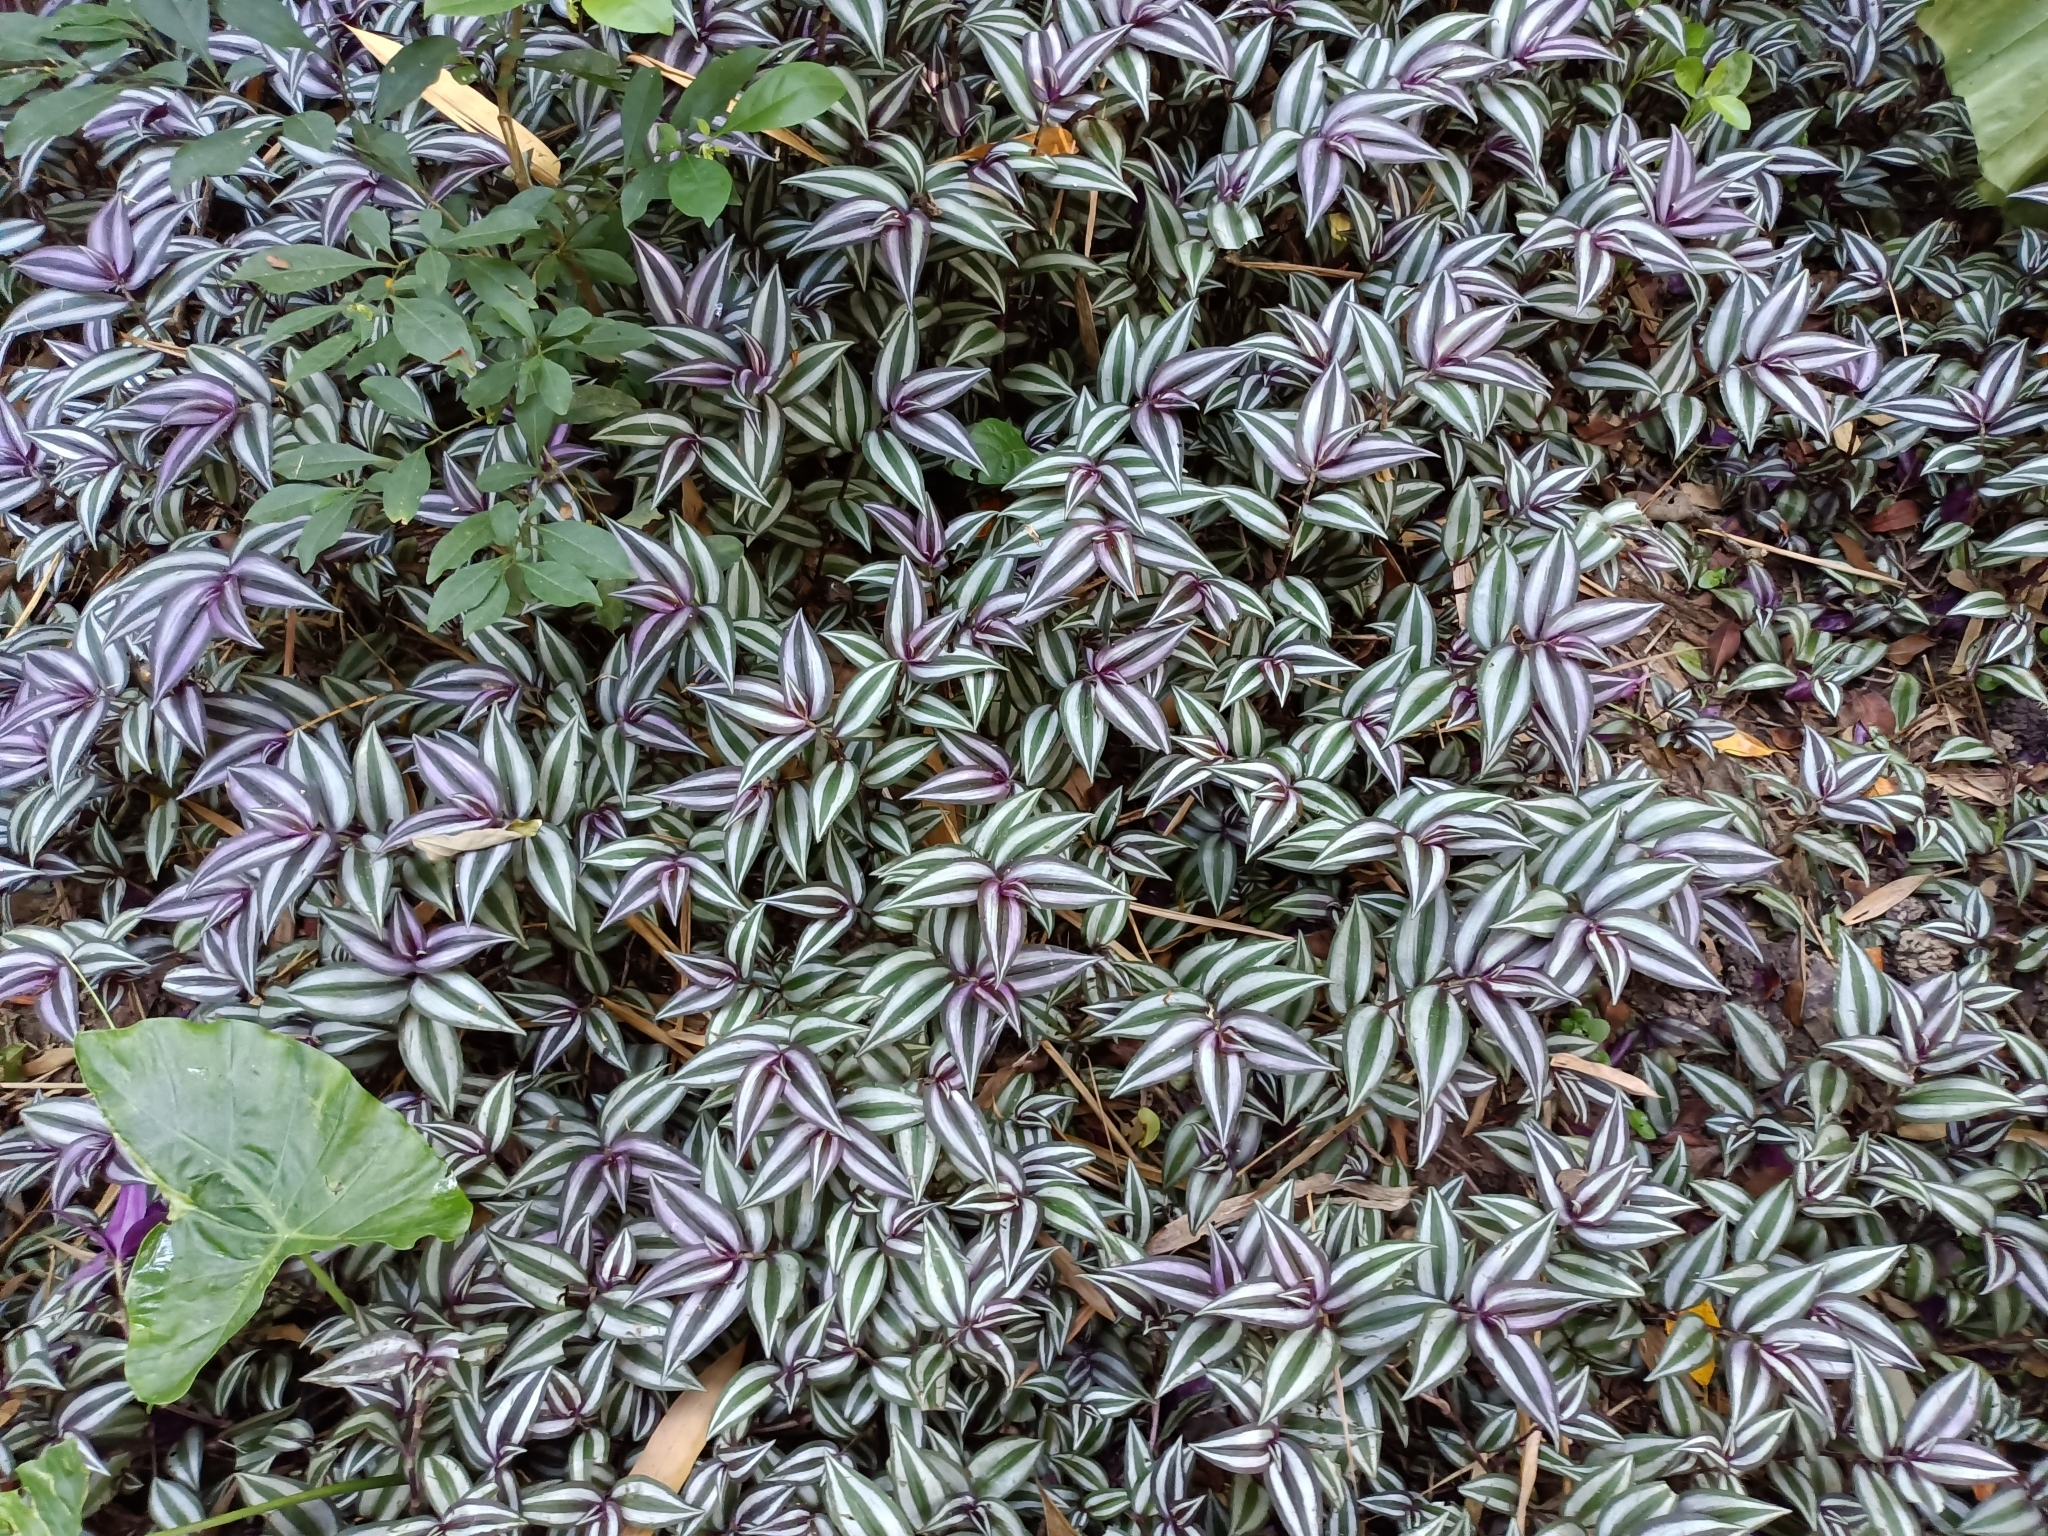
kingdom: Plantae
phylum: Tracheophyta
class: Liliopsida
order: Commelinales
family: Commelinaceae
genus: Tradescantia
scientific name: Tradescantia zebrina
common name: Inchplant
